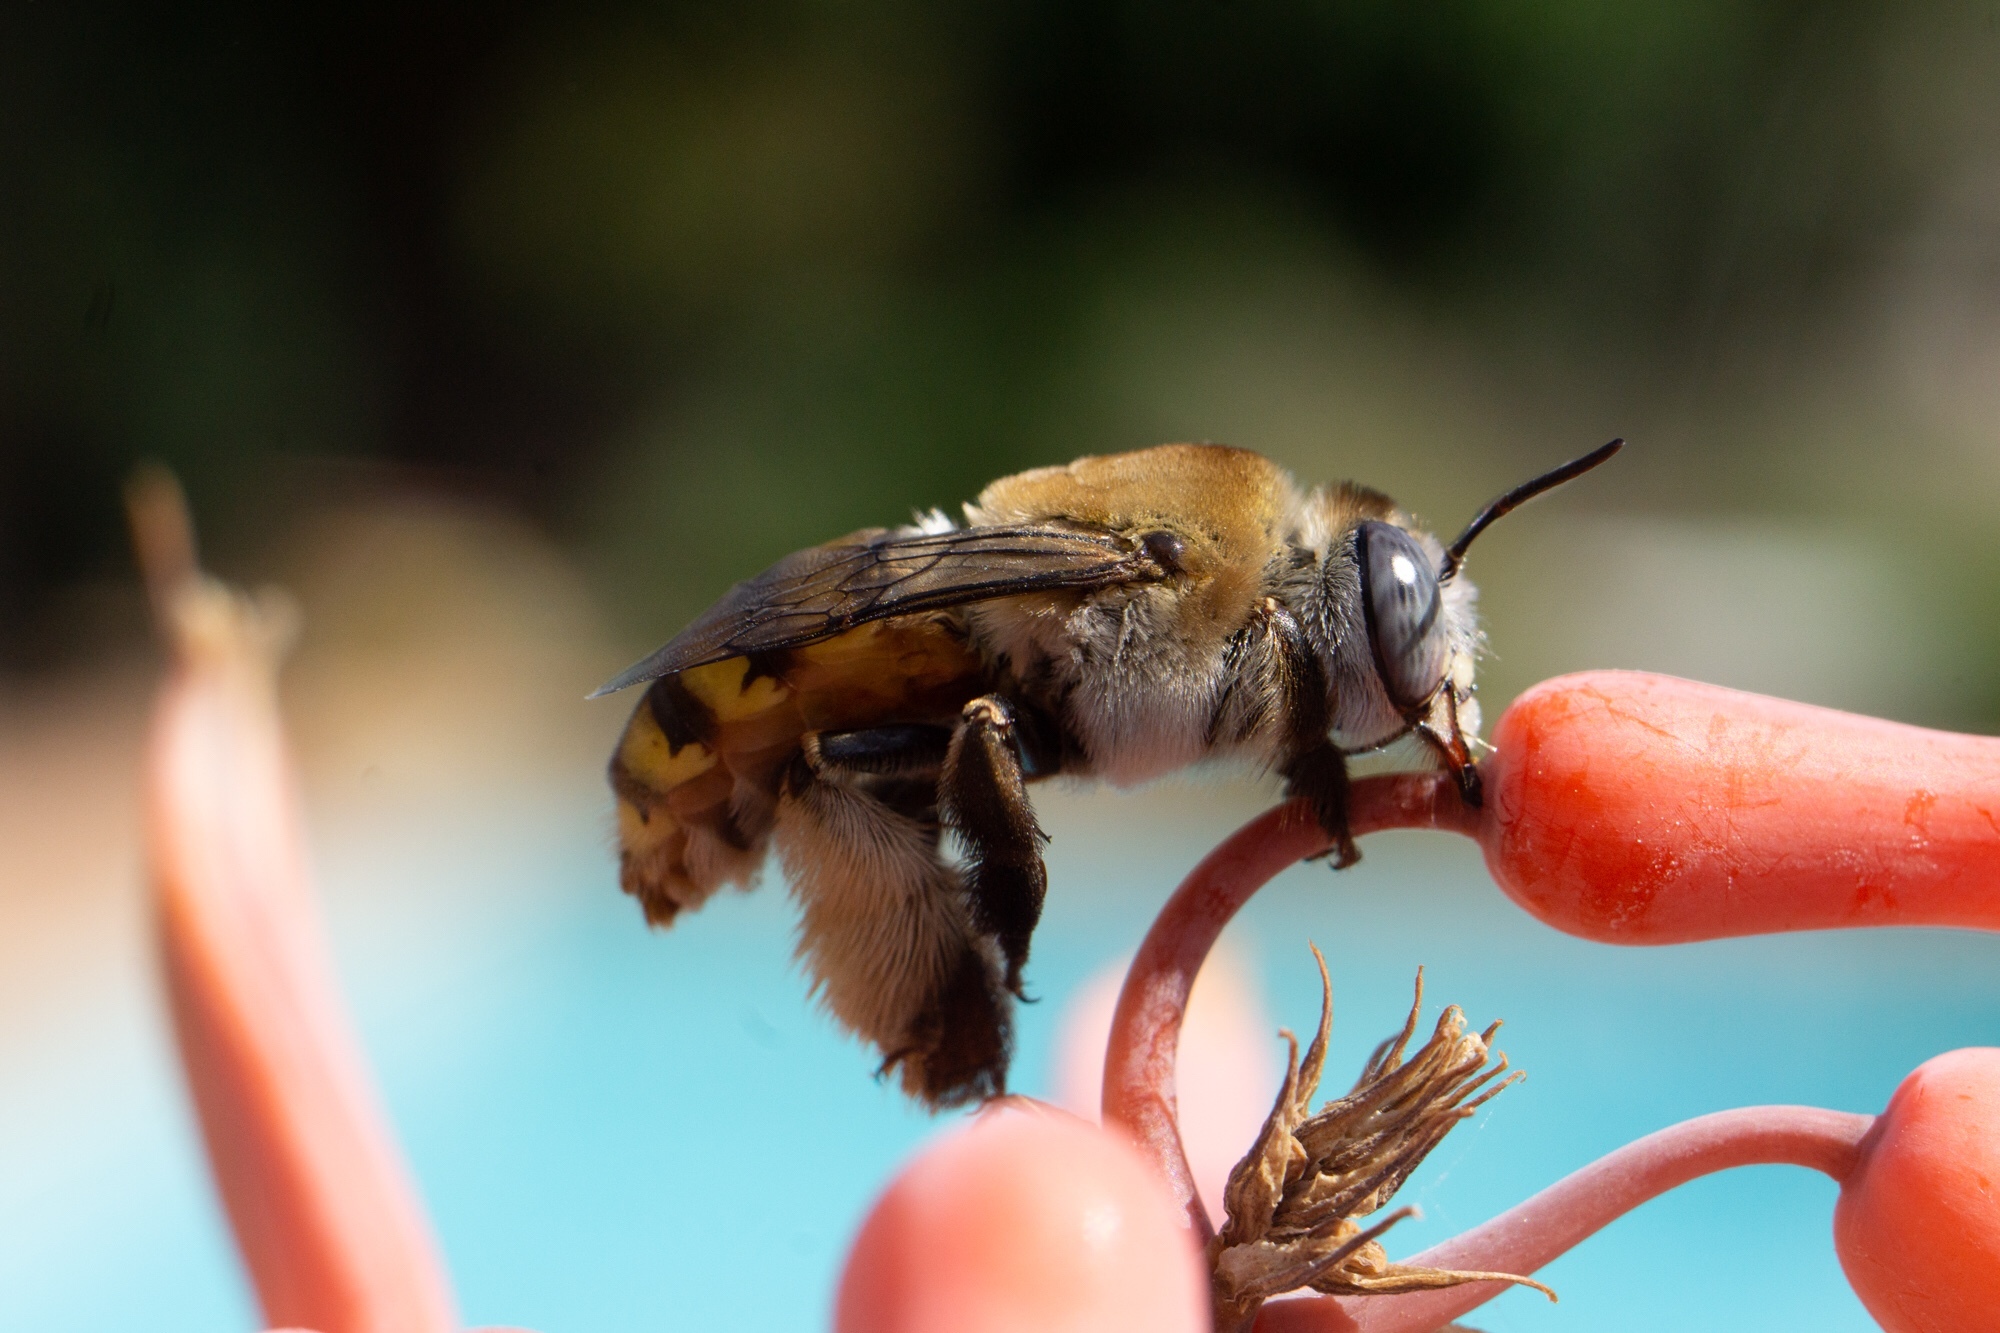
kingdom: Animalia
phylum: Arthropoda
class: Insecta
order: Hymenoptera
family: Apidae
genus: Centris
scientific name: Centris aethyctera
